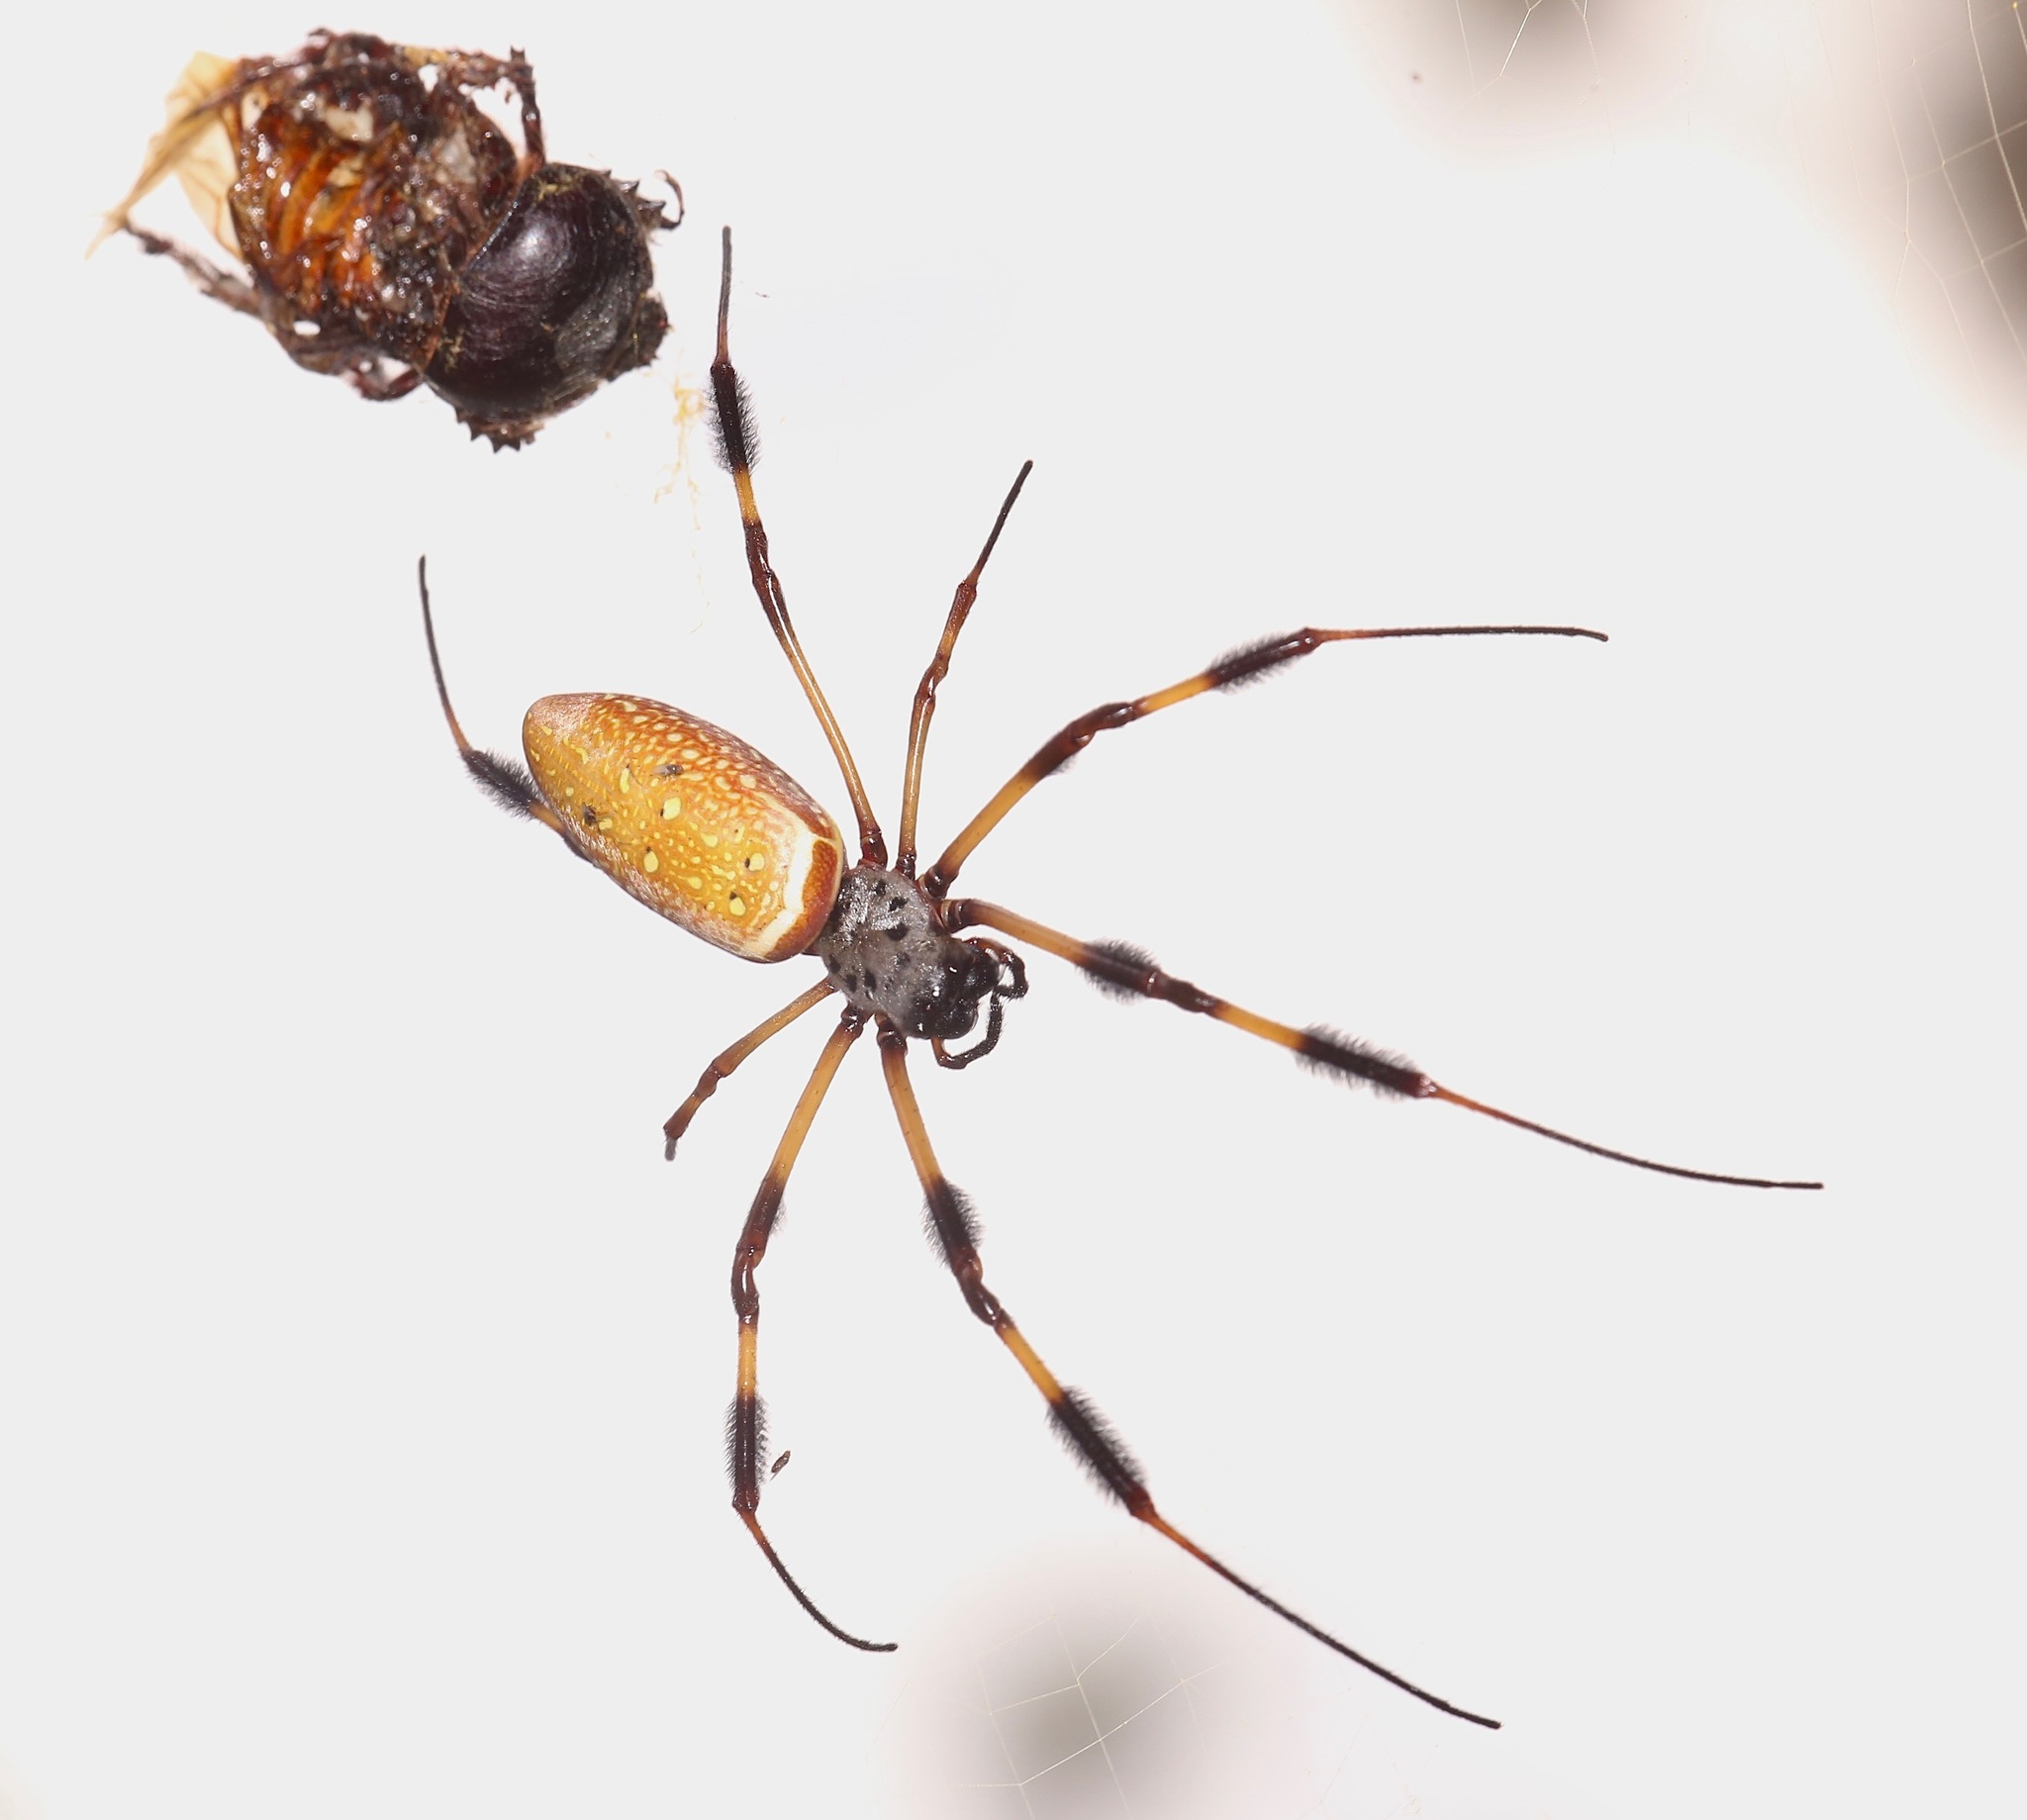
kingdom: Animalia
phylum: Arthropoda
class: Arachnida
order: Araneae
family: Araneidae
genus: Trichonephila
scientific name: Trichonephila clavipes
